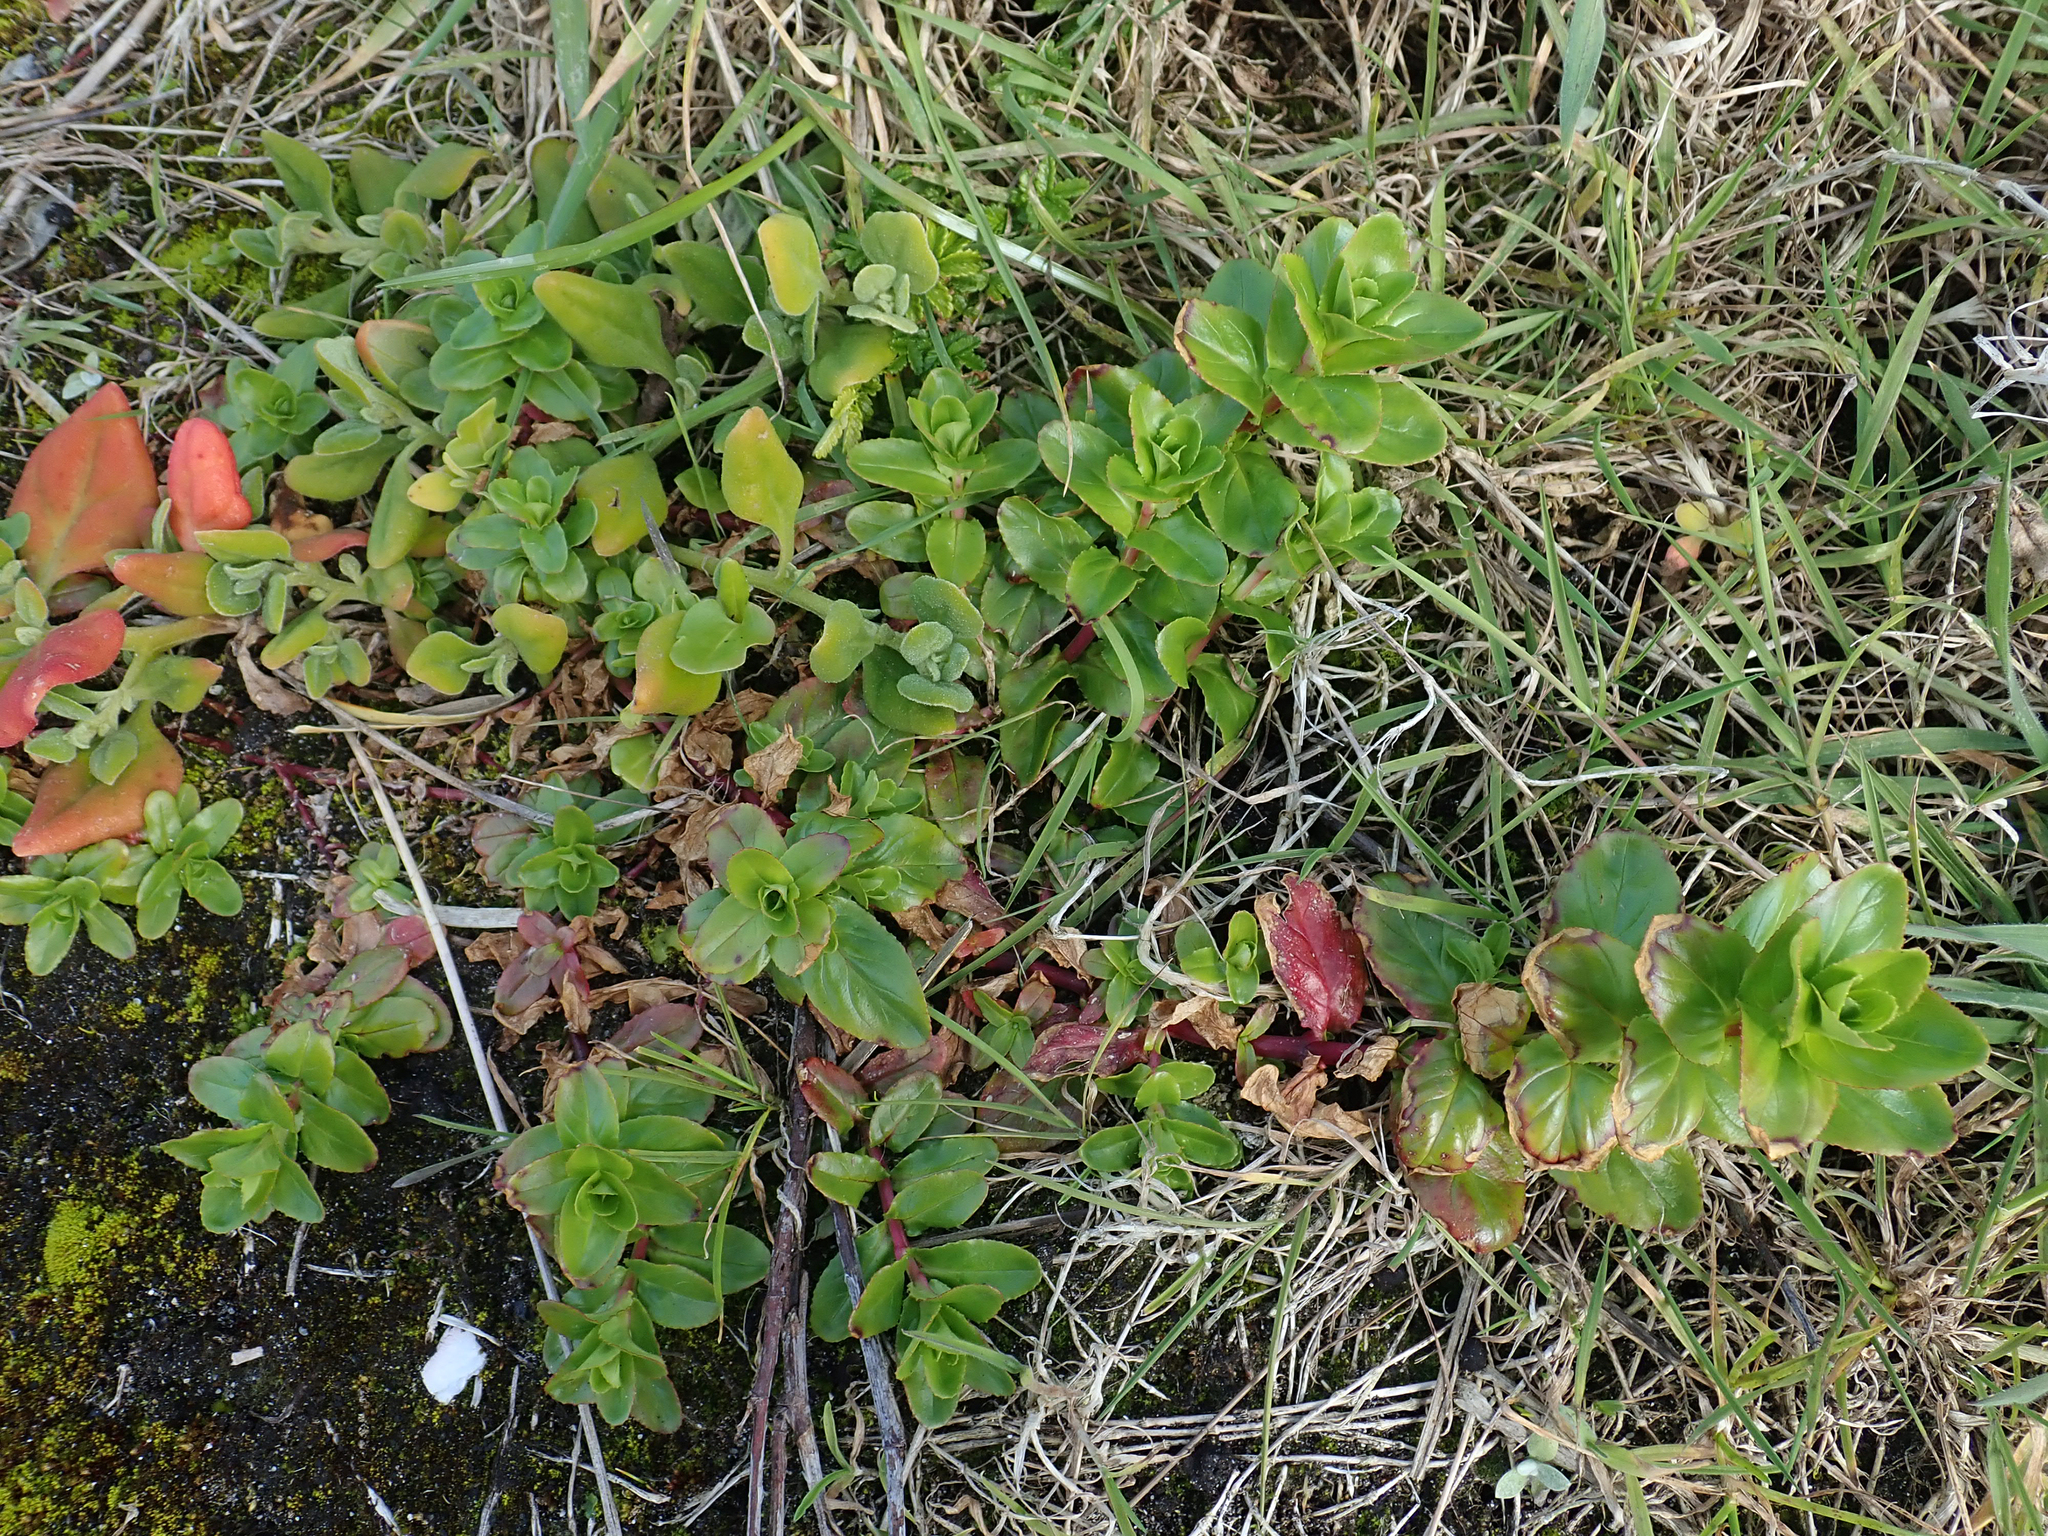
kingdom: Plantae
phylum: Tracheophyta
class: Magnoliopsida
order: Myrtales
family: Onagraceae
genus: Epilobium
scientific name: Epilobium billardiereanum
